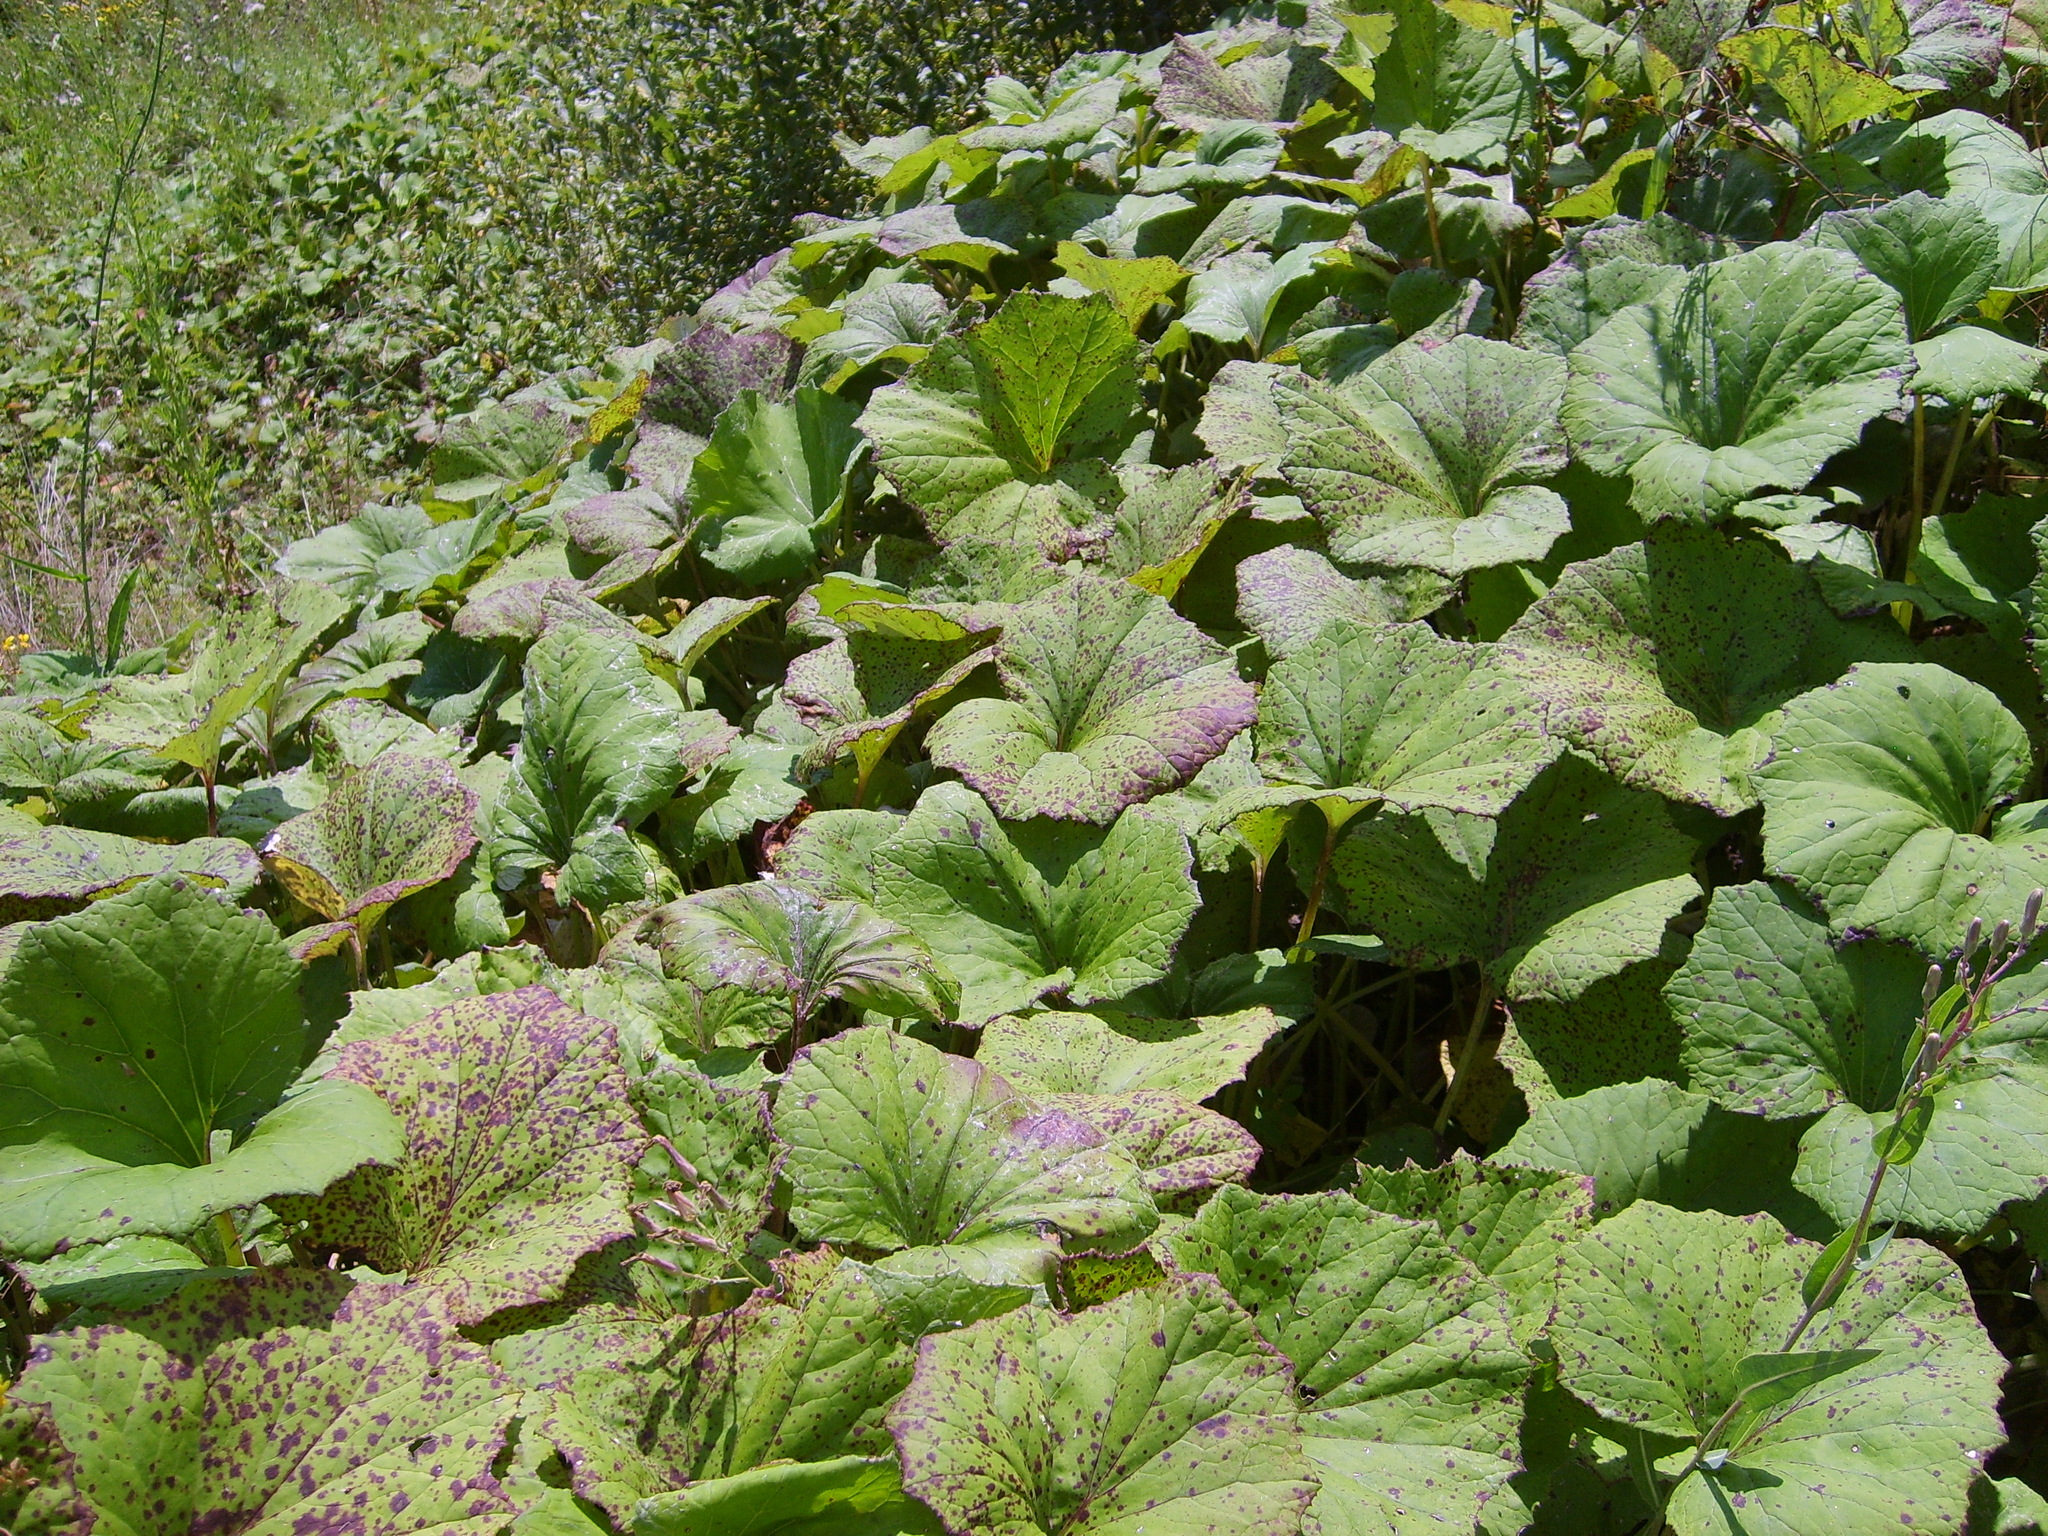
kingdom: Plantae
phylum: Tracheophyta
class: Magnoliopsida
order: Asterales
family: Asteraceae
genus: Tussilago
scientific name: Tussilago farfara
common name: Coltsfoot
